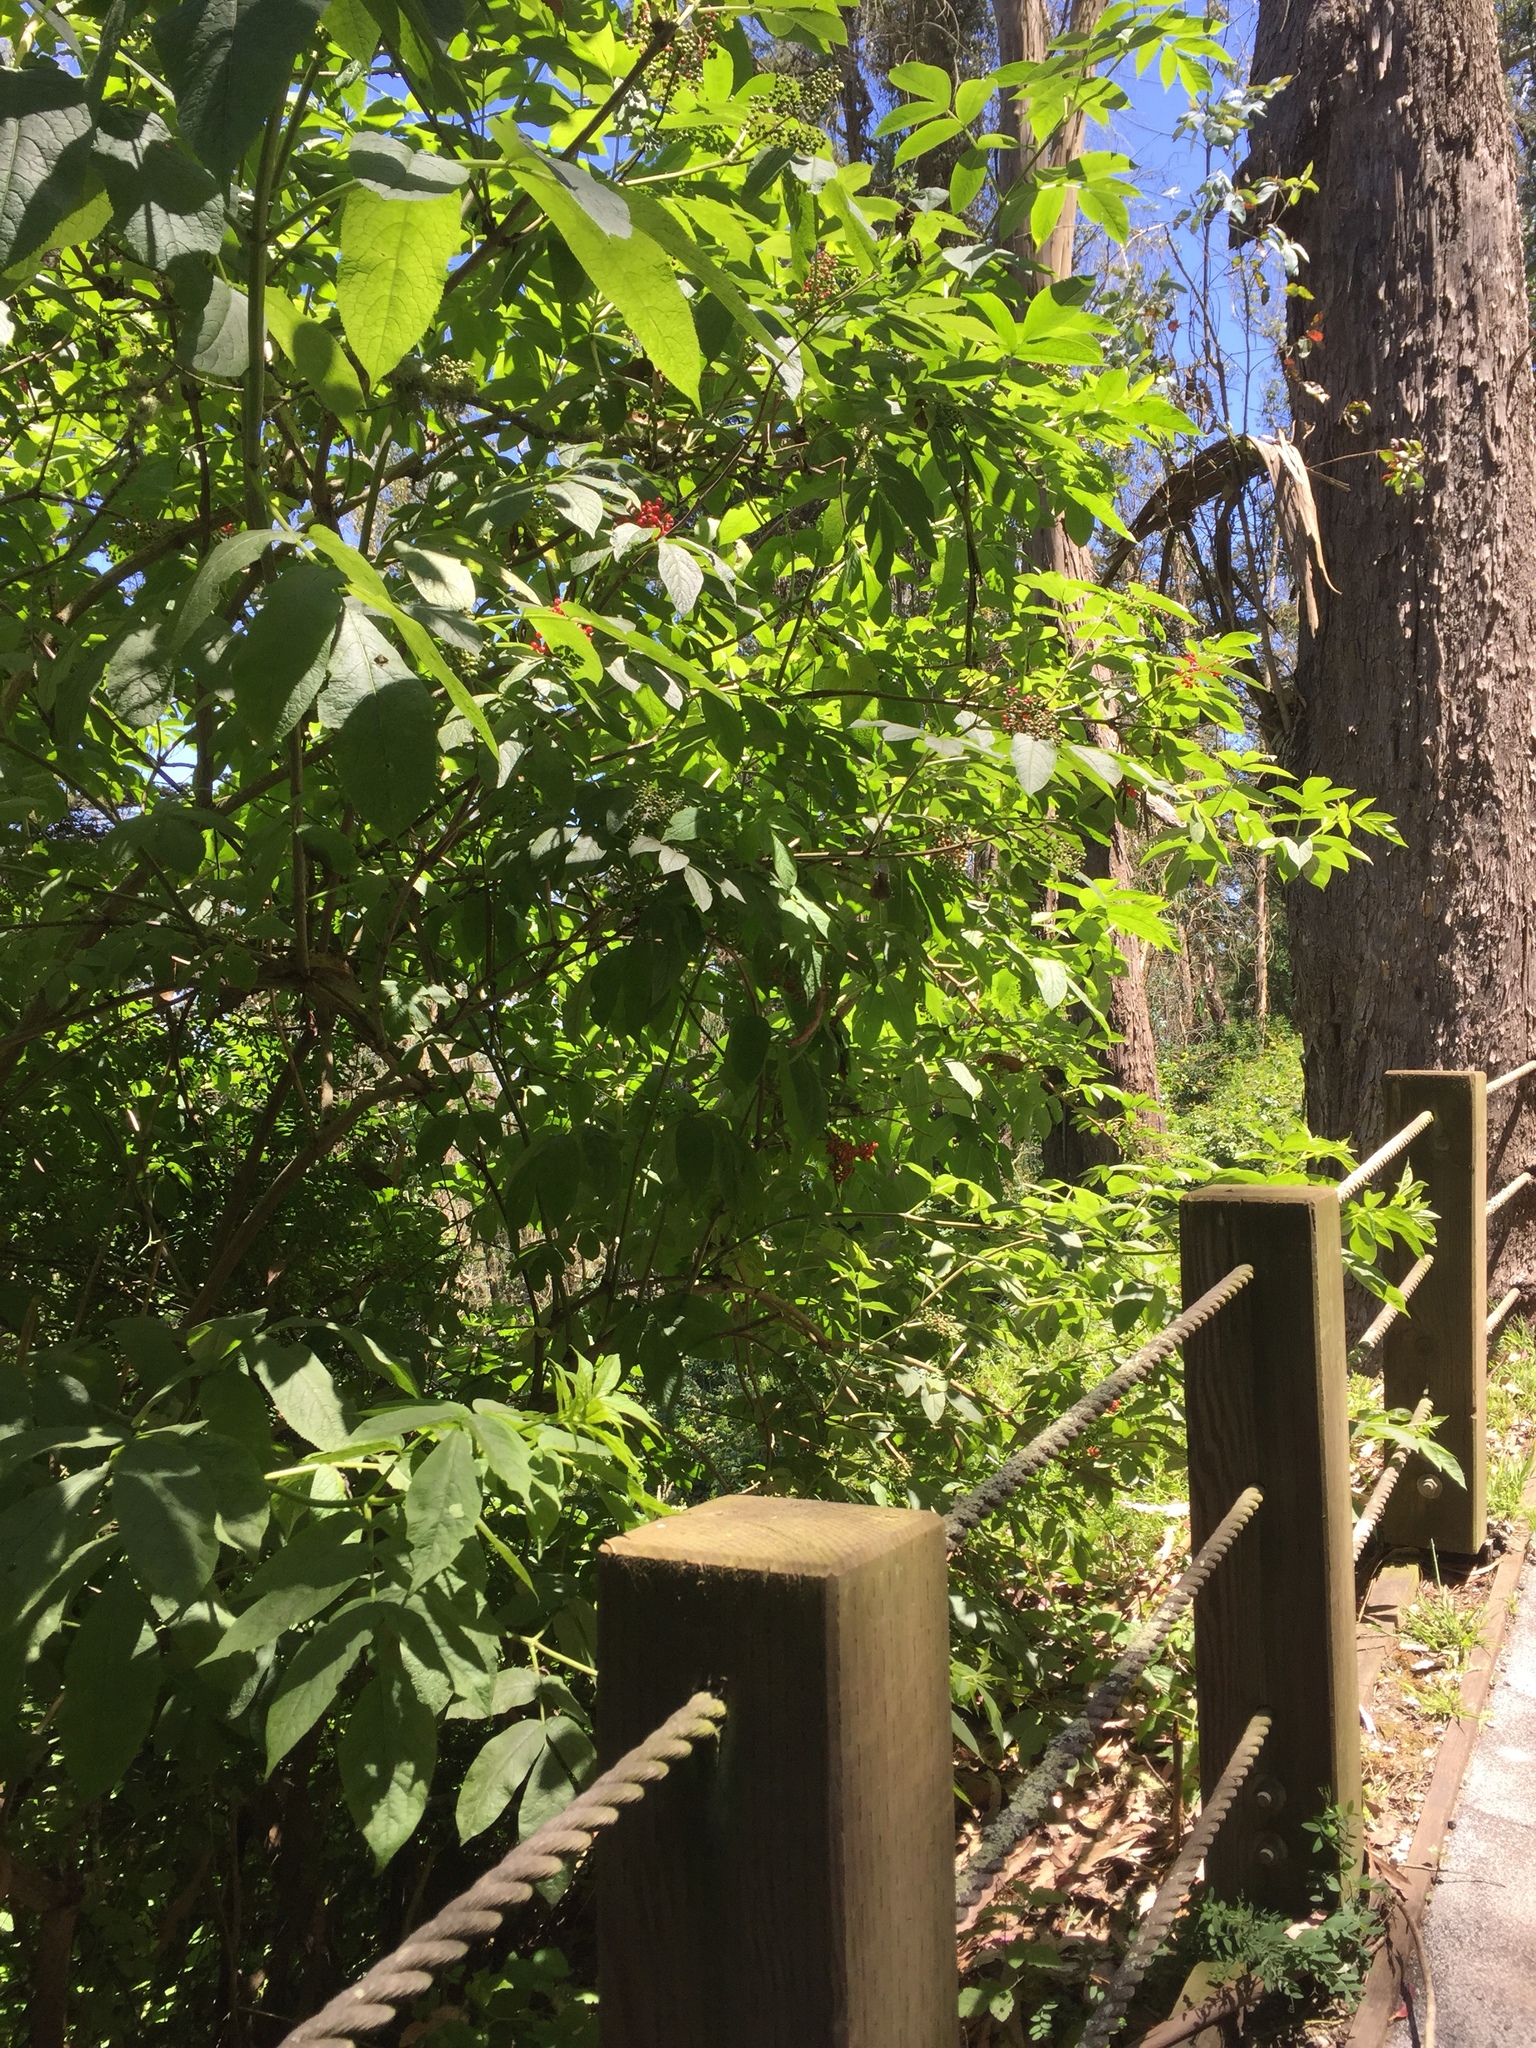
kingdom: Plantae
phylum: Tracheophyta
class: Magnoliopsida
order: Dipsacales
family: Viburnaceae
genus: Sambucus
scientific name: Sambucus racemosa
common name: Red-berried elder
